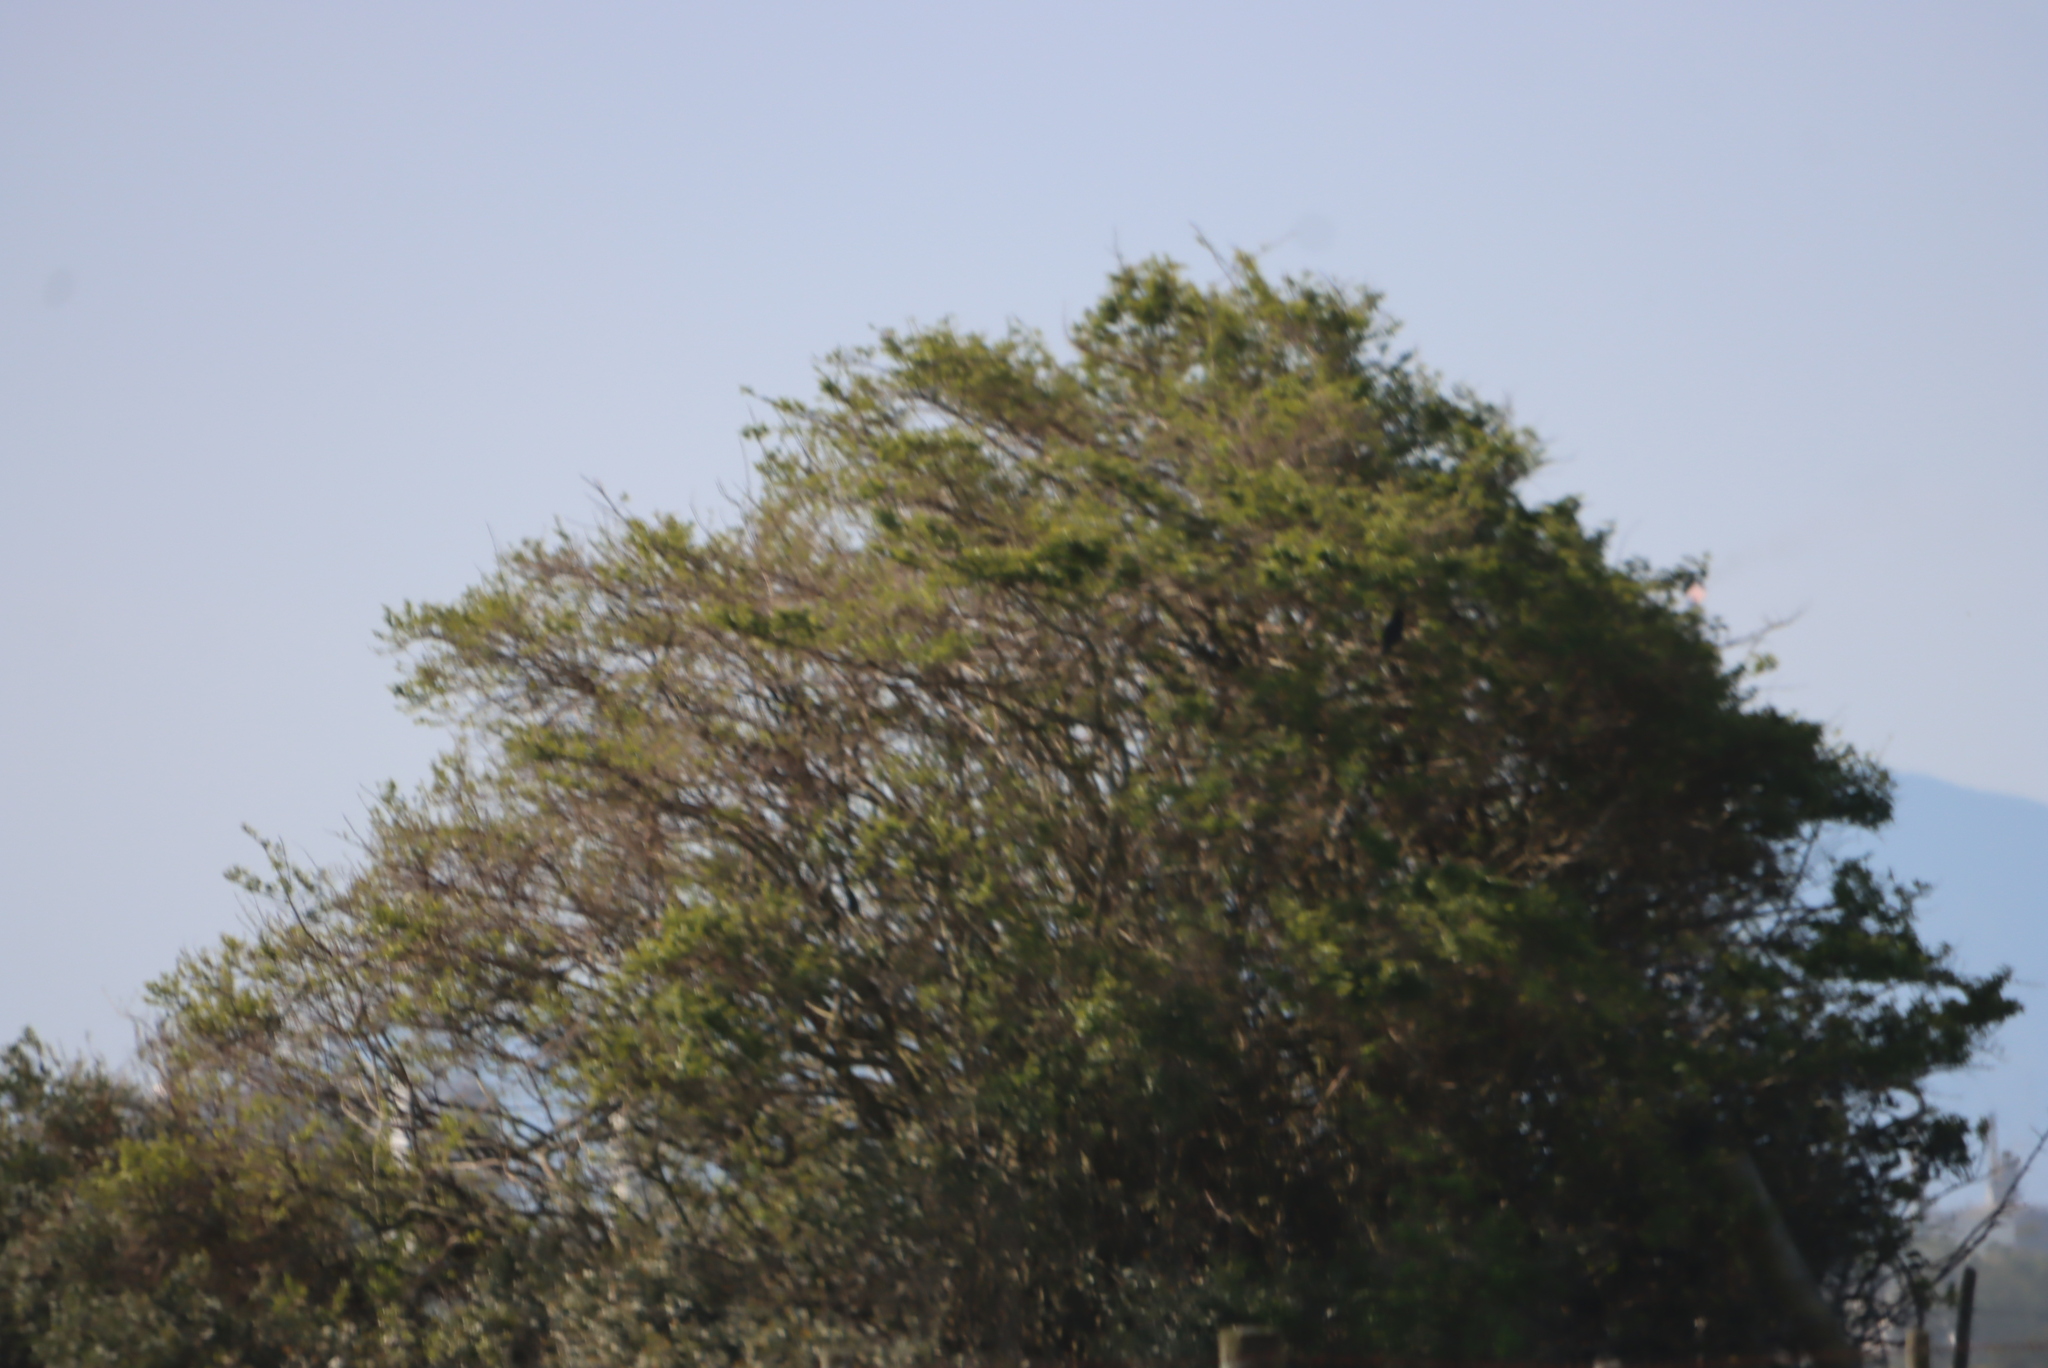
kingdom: Plantae
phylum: Tracheophyta
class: Magnoliopsida
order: Fabales
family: Fabaceae
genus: Vachellia
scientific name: Vachellia karroo
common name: Sweet thorn
